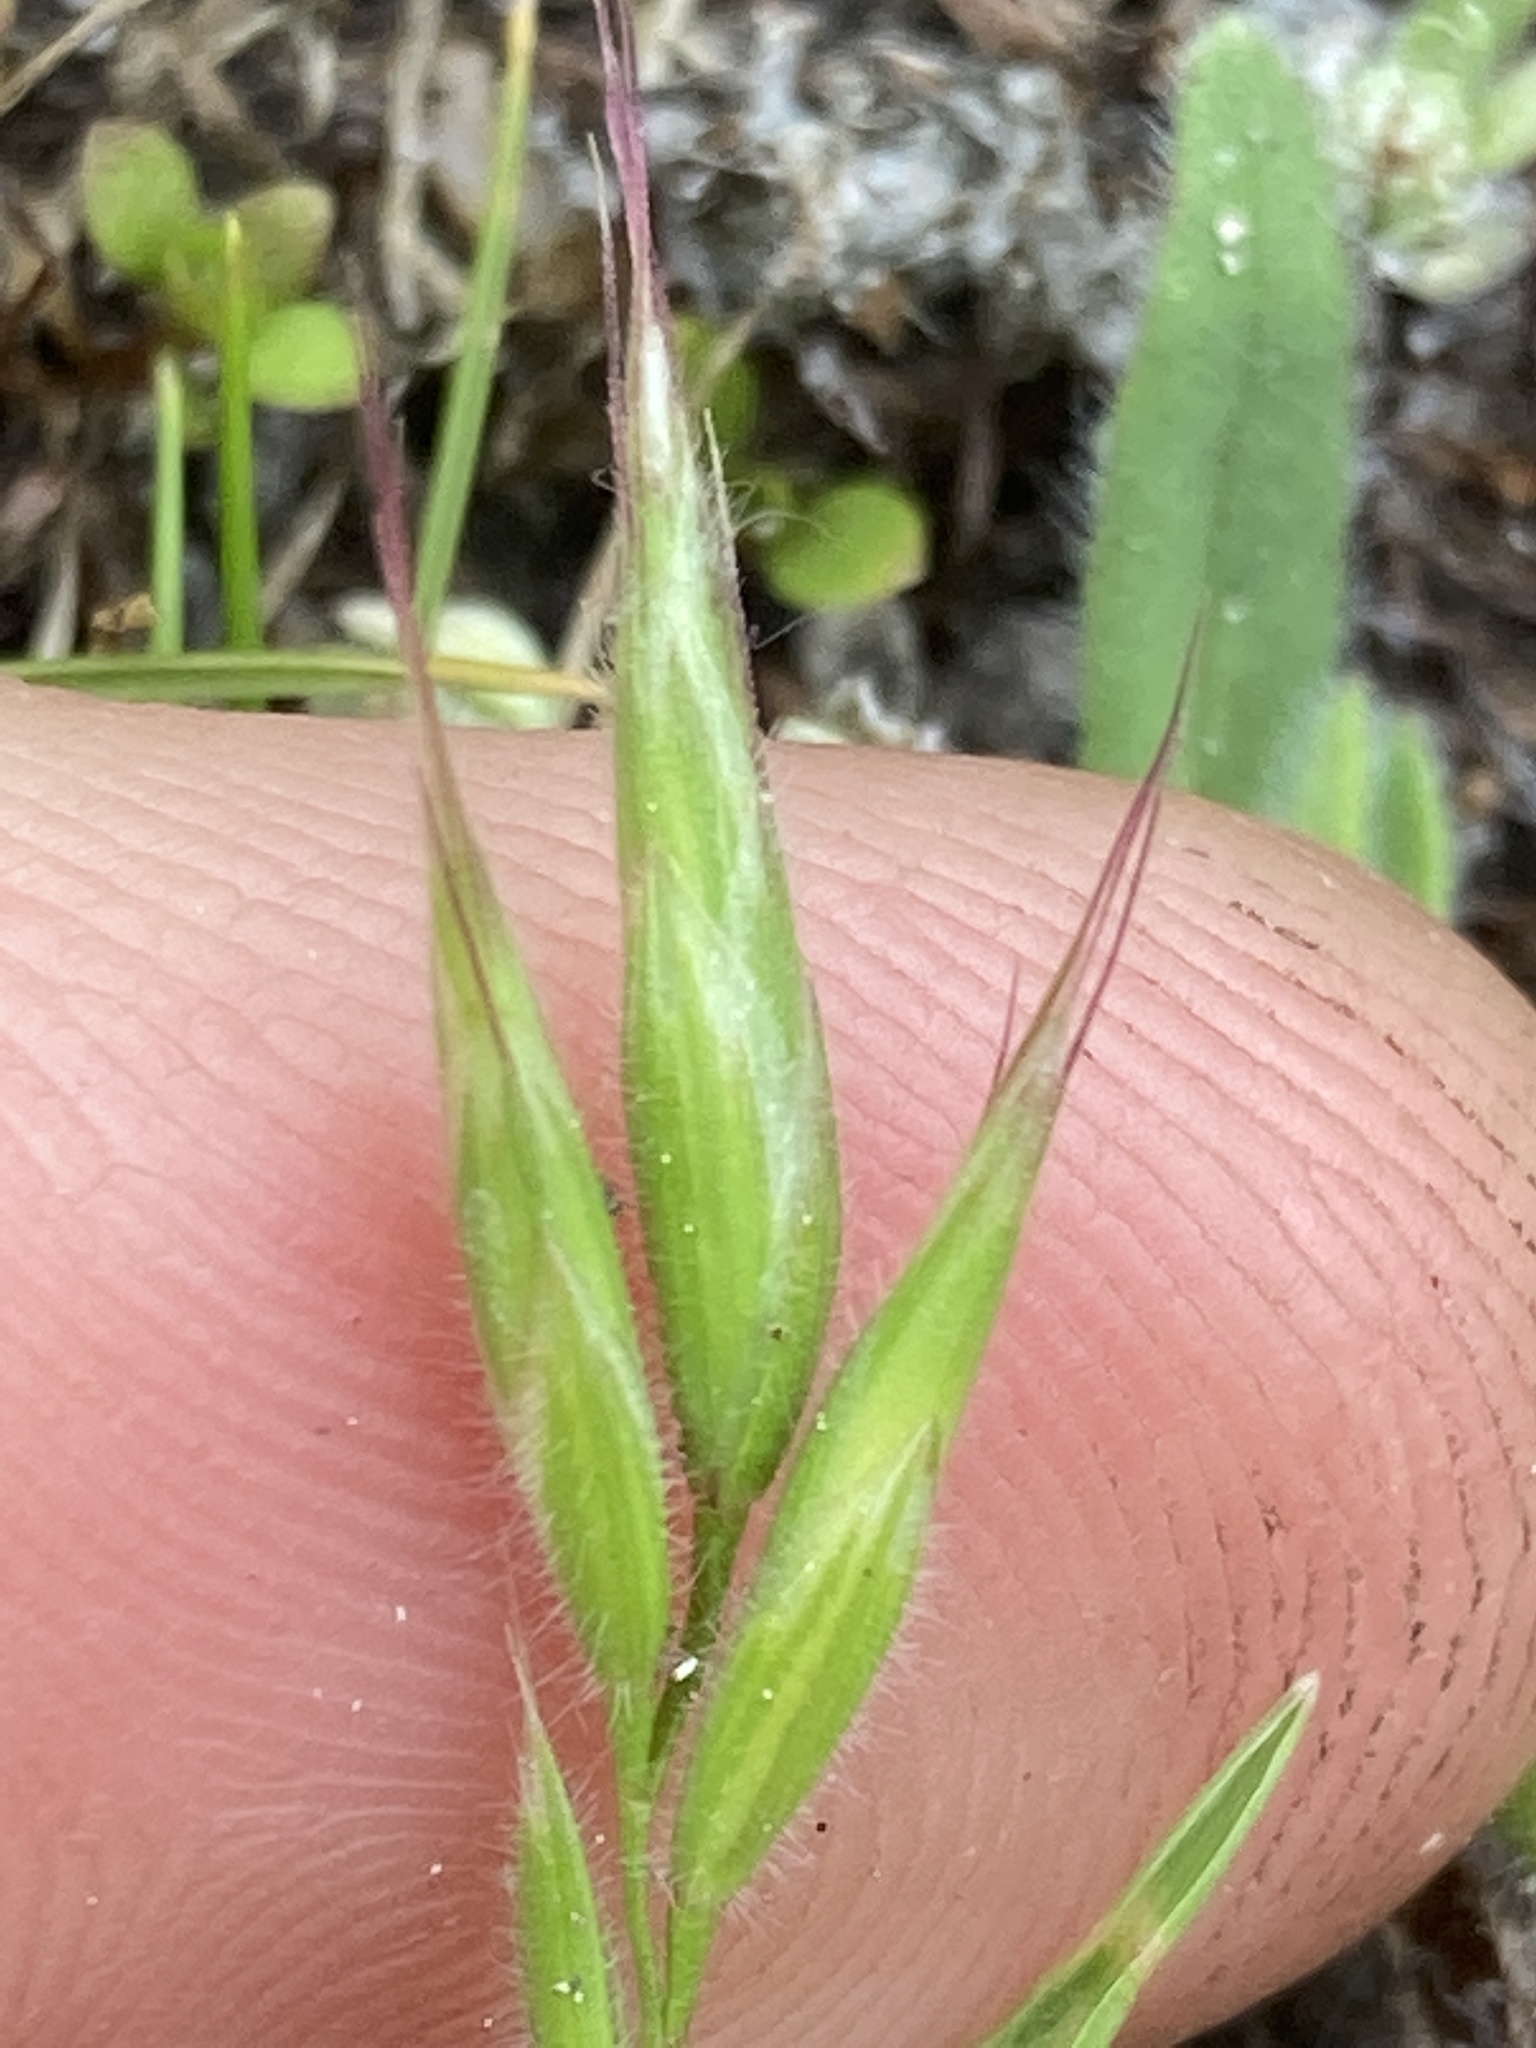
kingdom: Plantae
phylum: Tracheophyta
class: Liliopsida
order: Poales
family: Poaceae
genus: Bromus
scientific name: Bromus hordeaceus
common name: Soft brome
